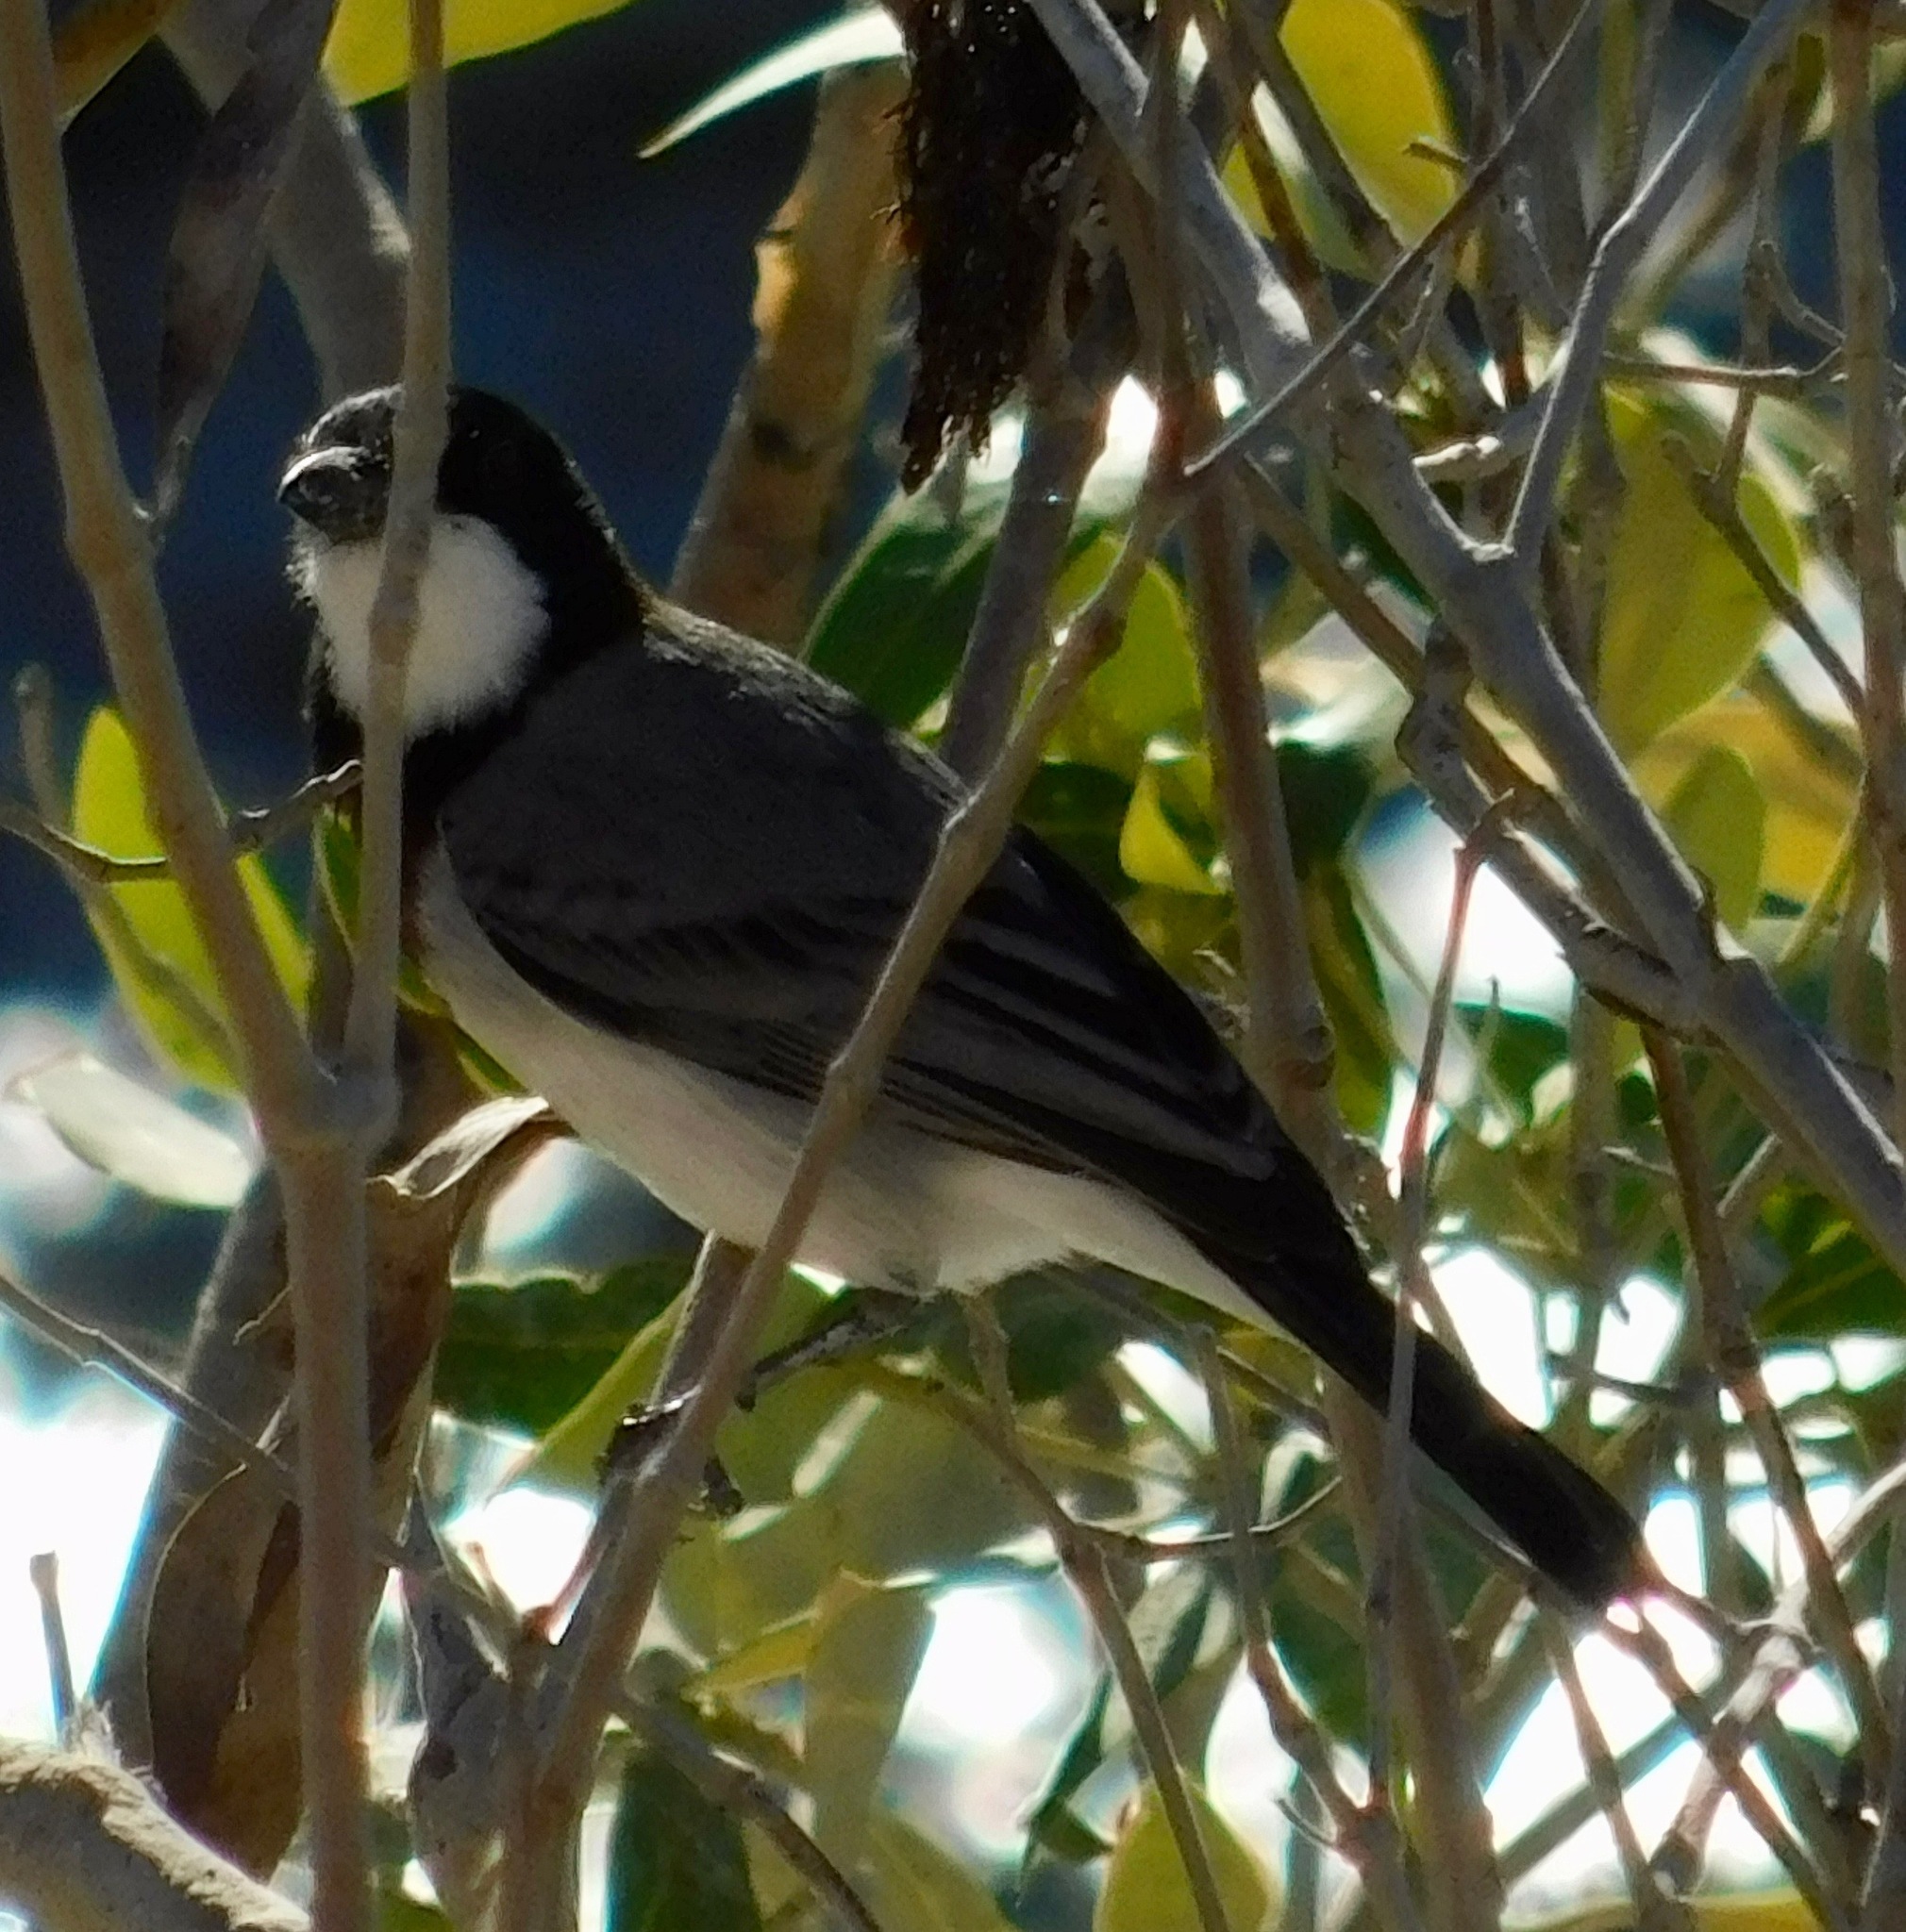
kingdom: Animalia
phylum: Chordata
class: Aves
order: Passeriformes
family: Pachycephalidae
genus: Pachycephala
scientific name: Pachycephala lanioides
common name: White-breasted whistler
